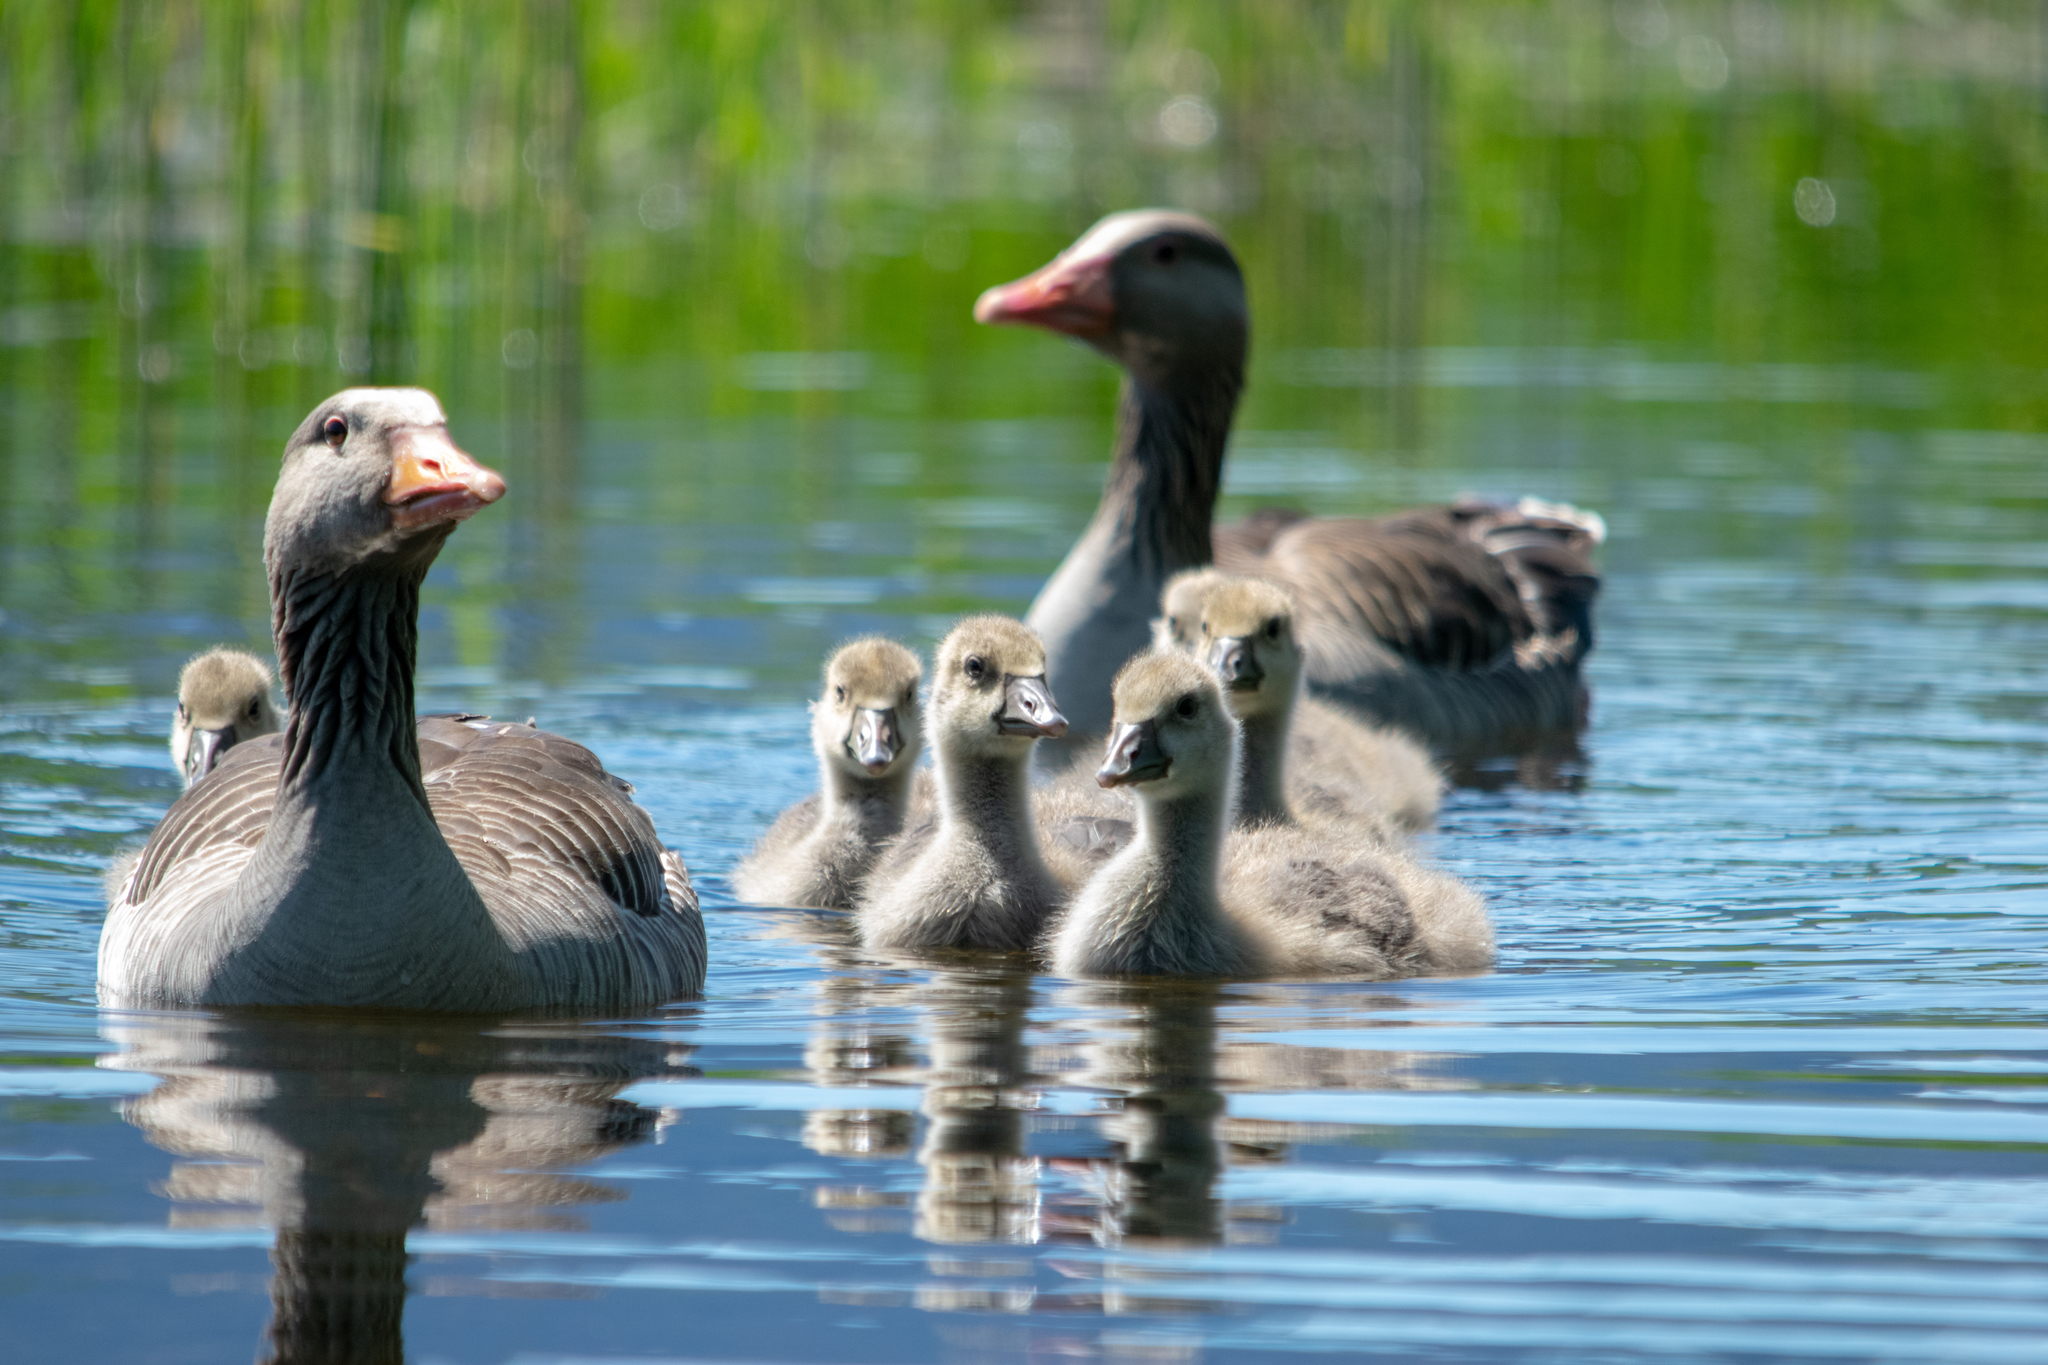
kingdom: Animalia
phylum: Chordata
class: Aves
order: Anseriformes
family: Anatidae
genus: Anser
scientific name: Anser anser
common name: Greylag goose
